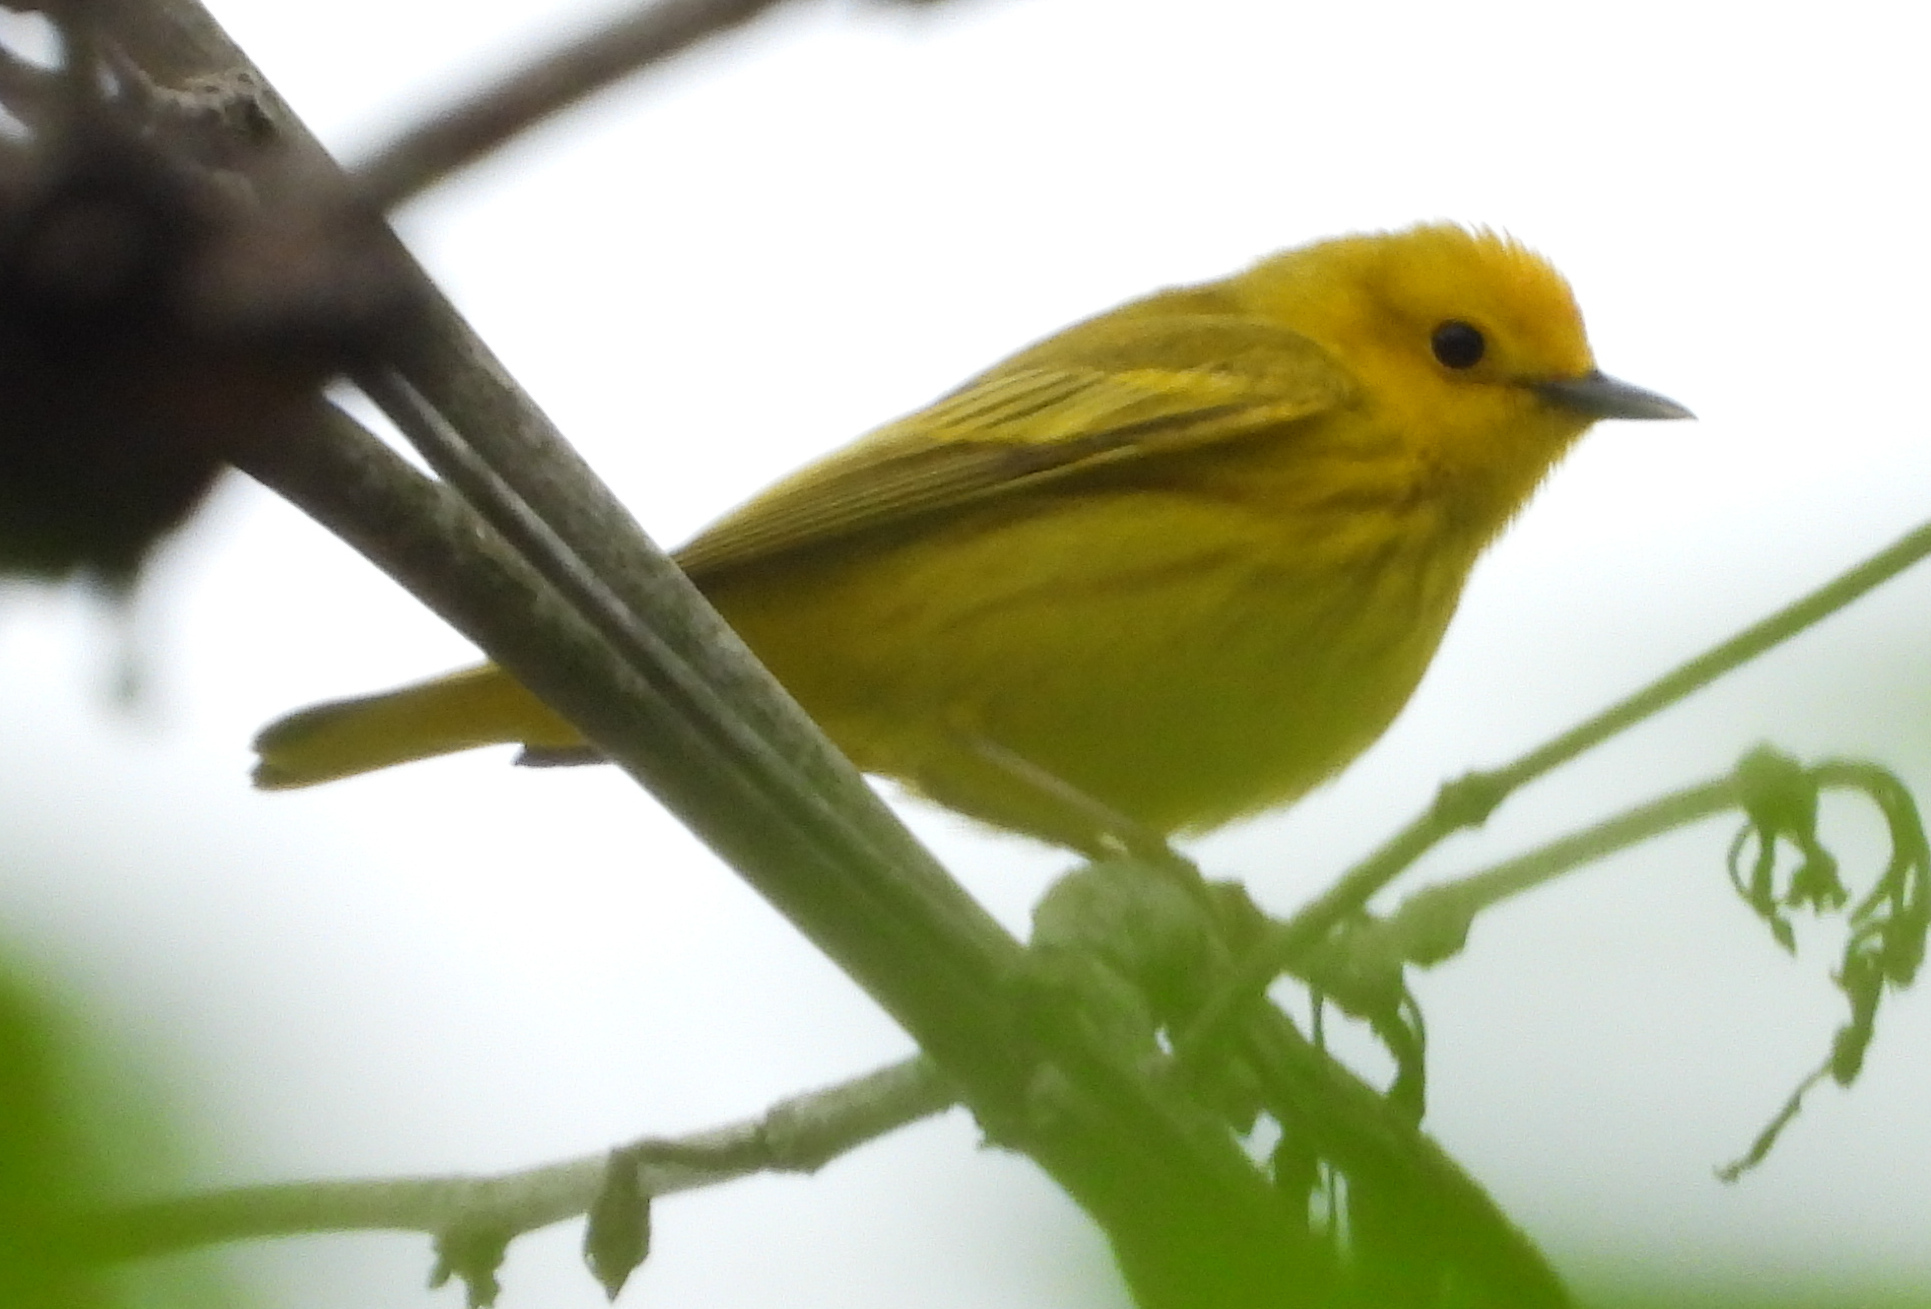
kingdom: Animalia
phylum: Chordata
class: Aves
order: Passeriformes
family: Parulidae
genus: Setophaga
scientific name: Setophaga petechia
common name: Yellow warbler
